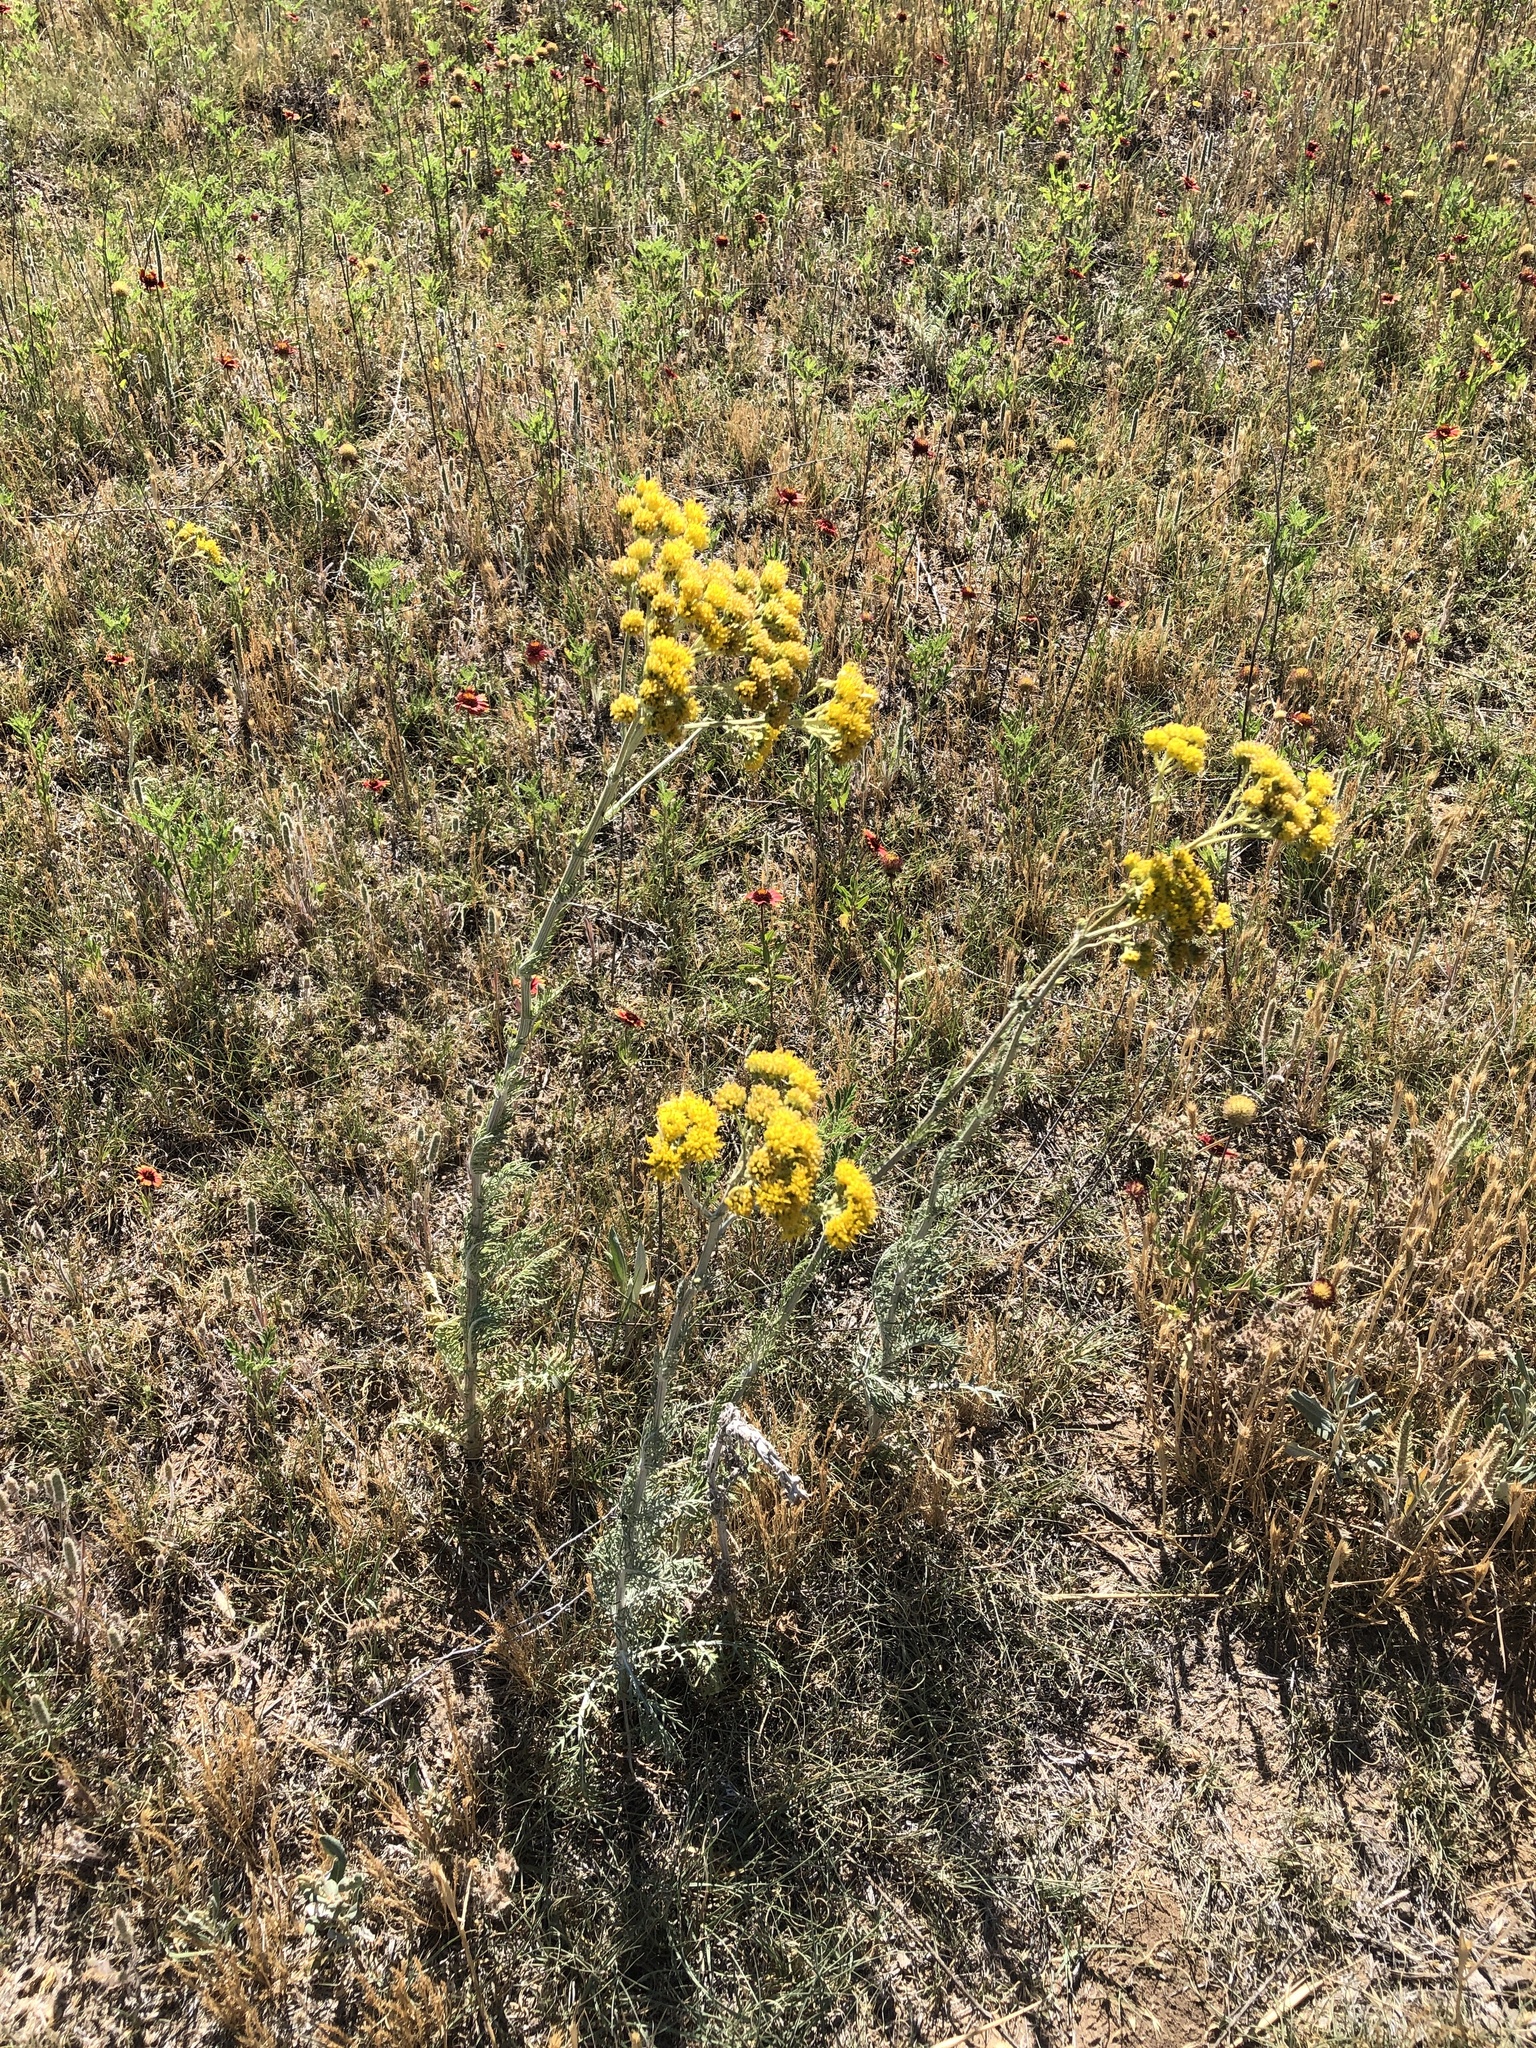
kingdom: Plantae
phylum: Tracheophyta
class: Magnoliopsida
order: Asterales
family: Asteraceae
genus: Hymenopappus
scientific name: Hymenopappus flavescens
